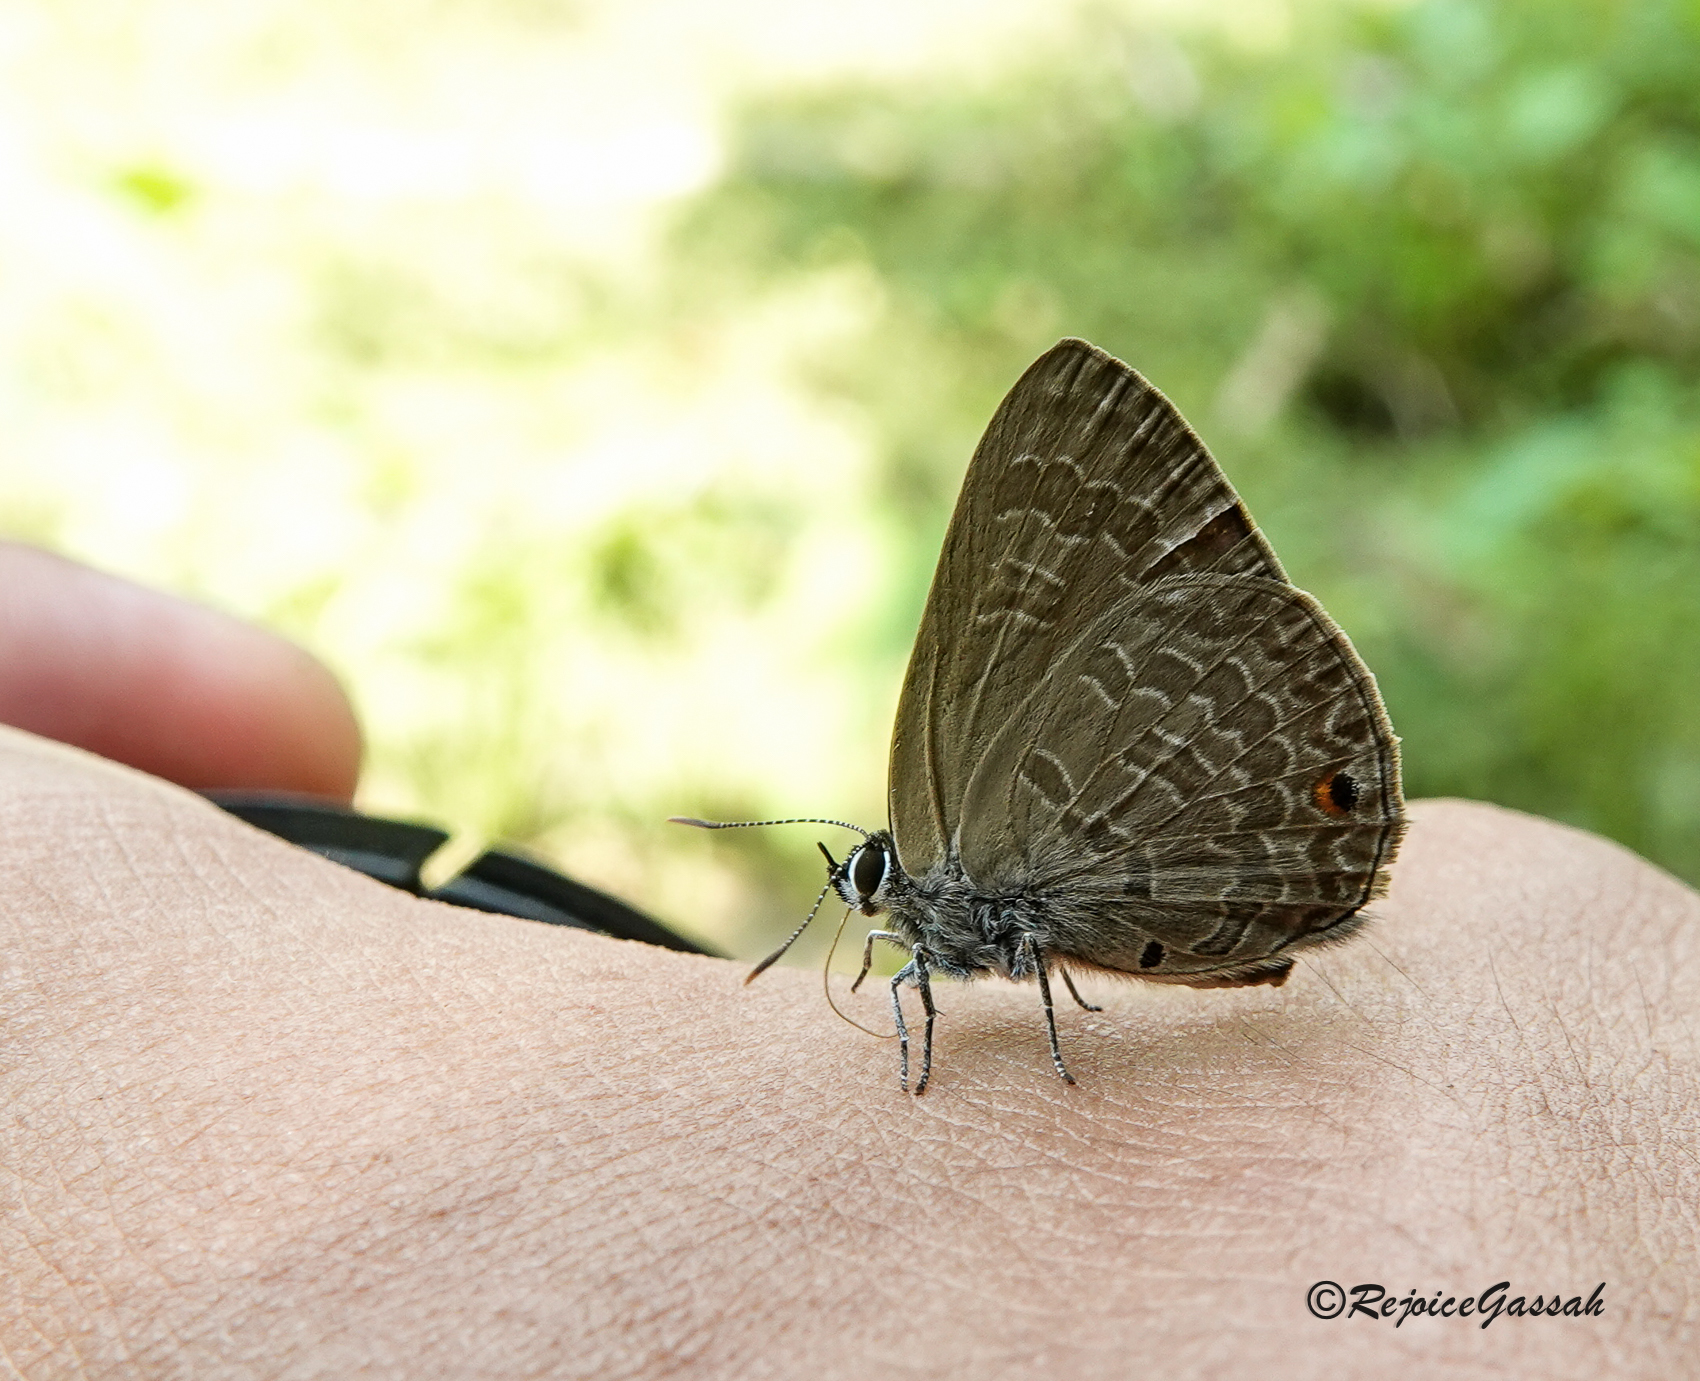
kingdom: Animalia
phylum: Arthropoda
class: Insecta
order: Lepidoptera
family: Lycaenidae
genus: Anthene
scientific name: Anthene emolus
